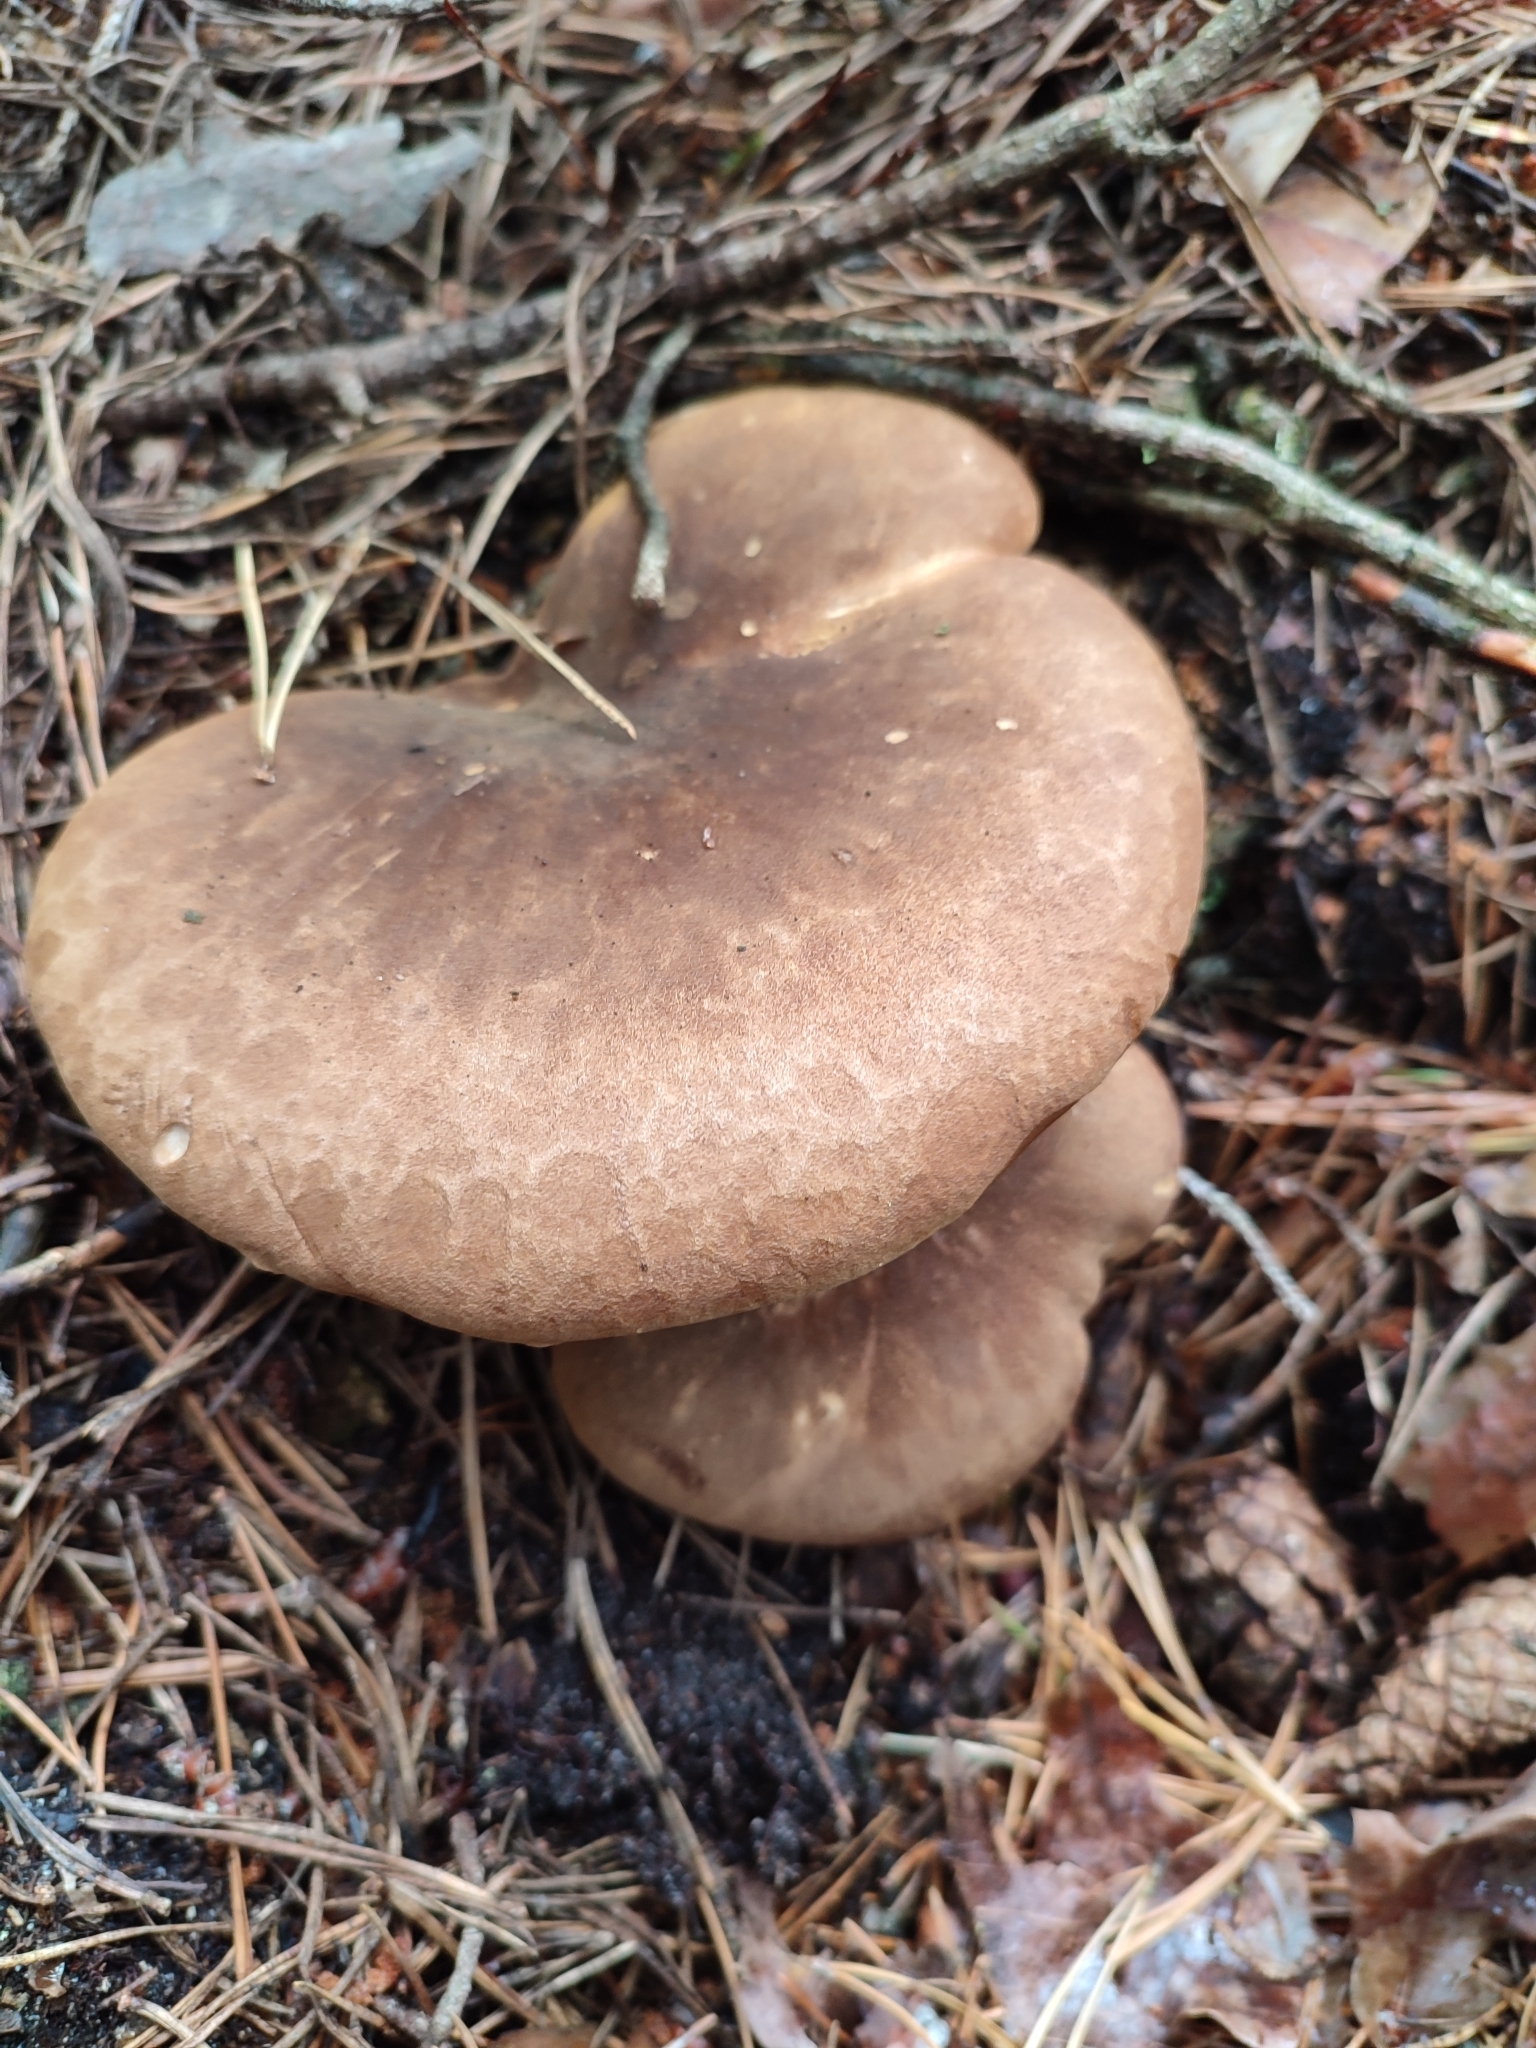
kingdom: Fungi
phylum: Basidiomycota
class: Agaricomycetes
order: Boletales
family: Tapinellaceae
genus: Tapinella
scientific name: Tapinella atrotomentosa
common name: Velvet rollrim
